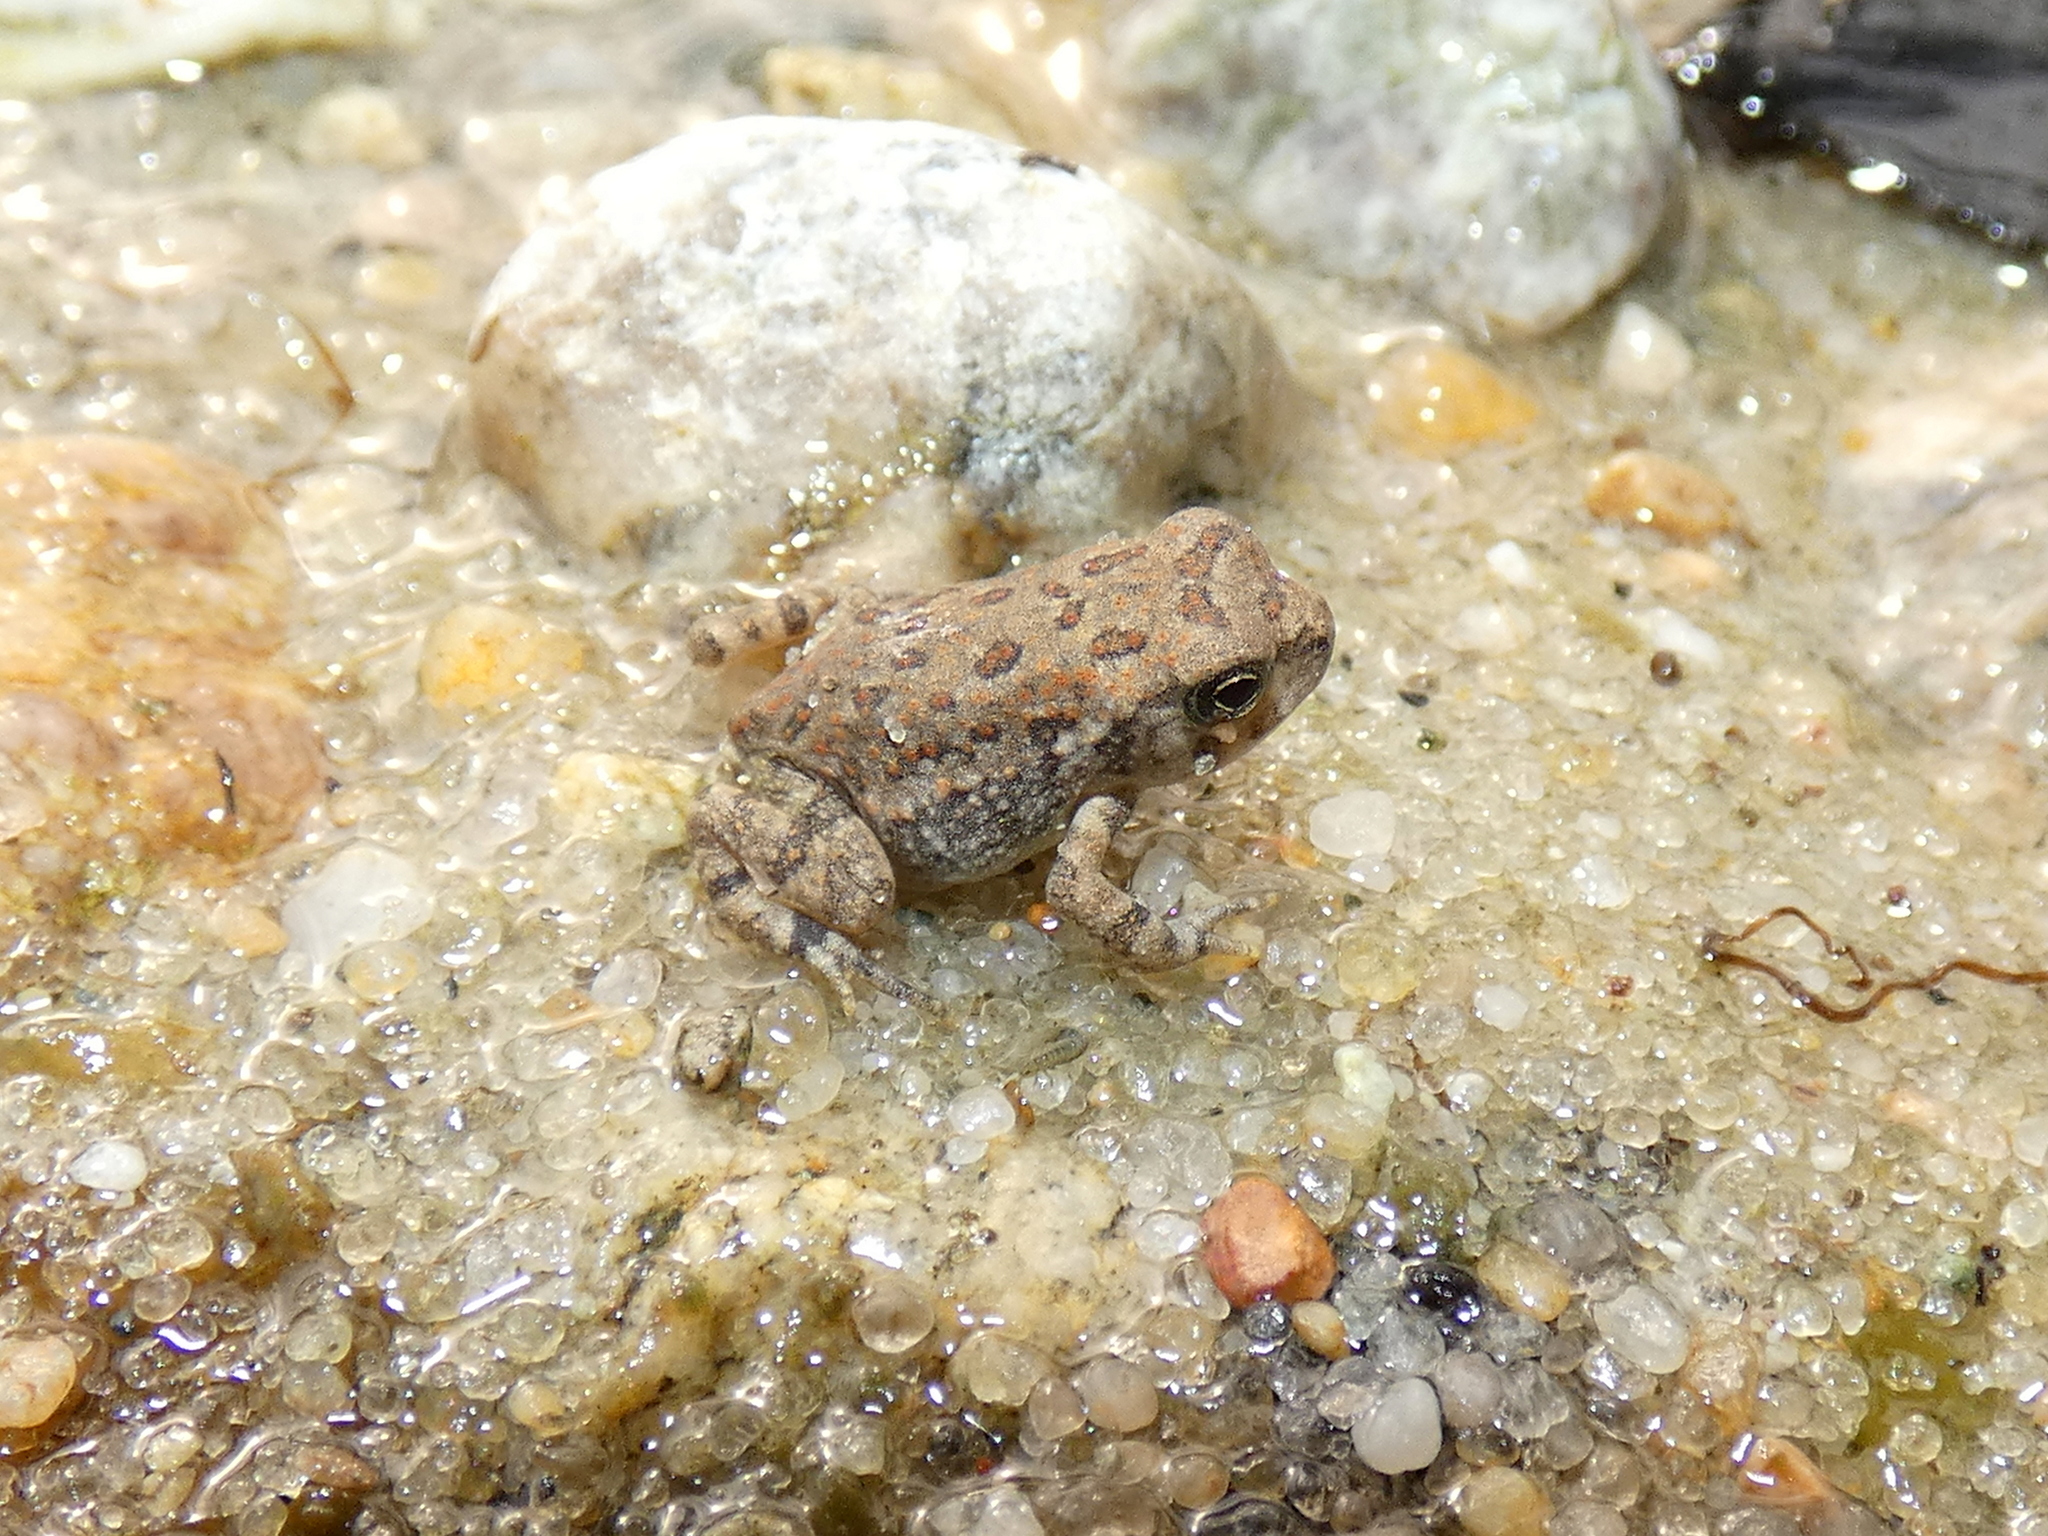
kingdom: Animalia
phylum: Chordata
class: Amphibia
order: Anura
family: Bufonidae
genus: Anaxyrus
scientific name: Anaxyrus fowleri
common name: Fowler's toad
